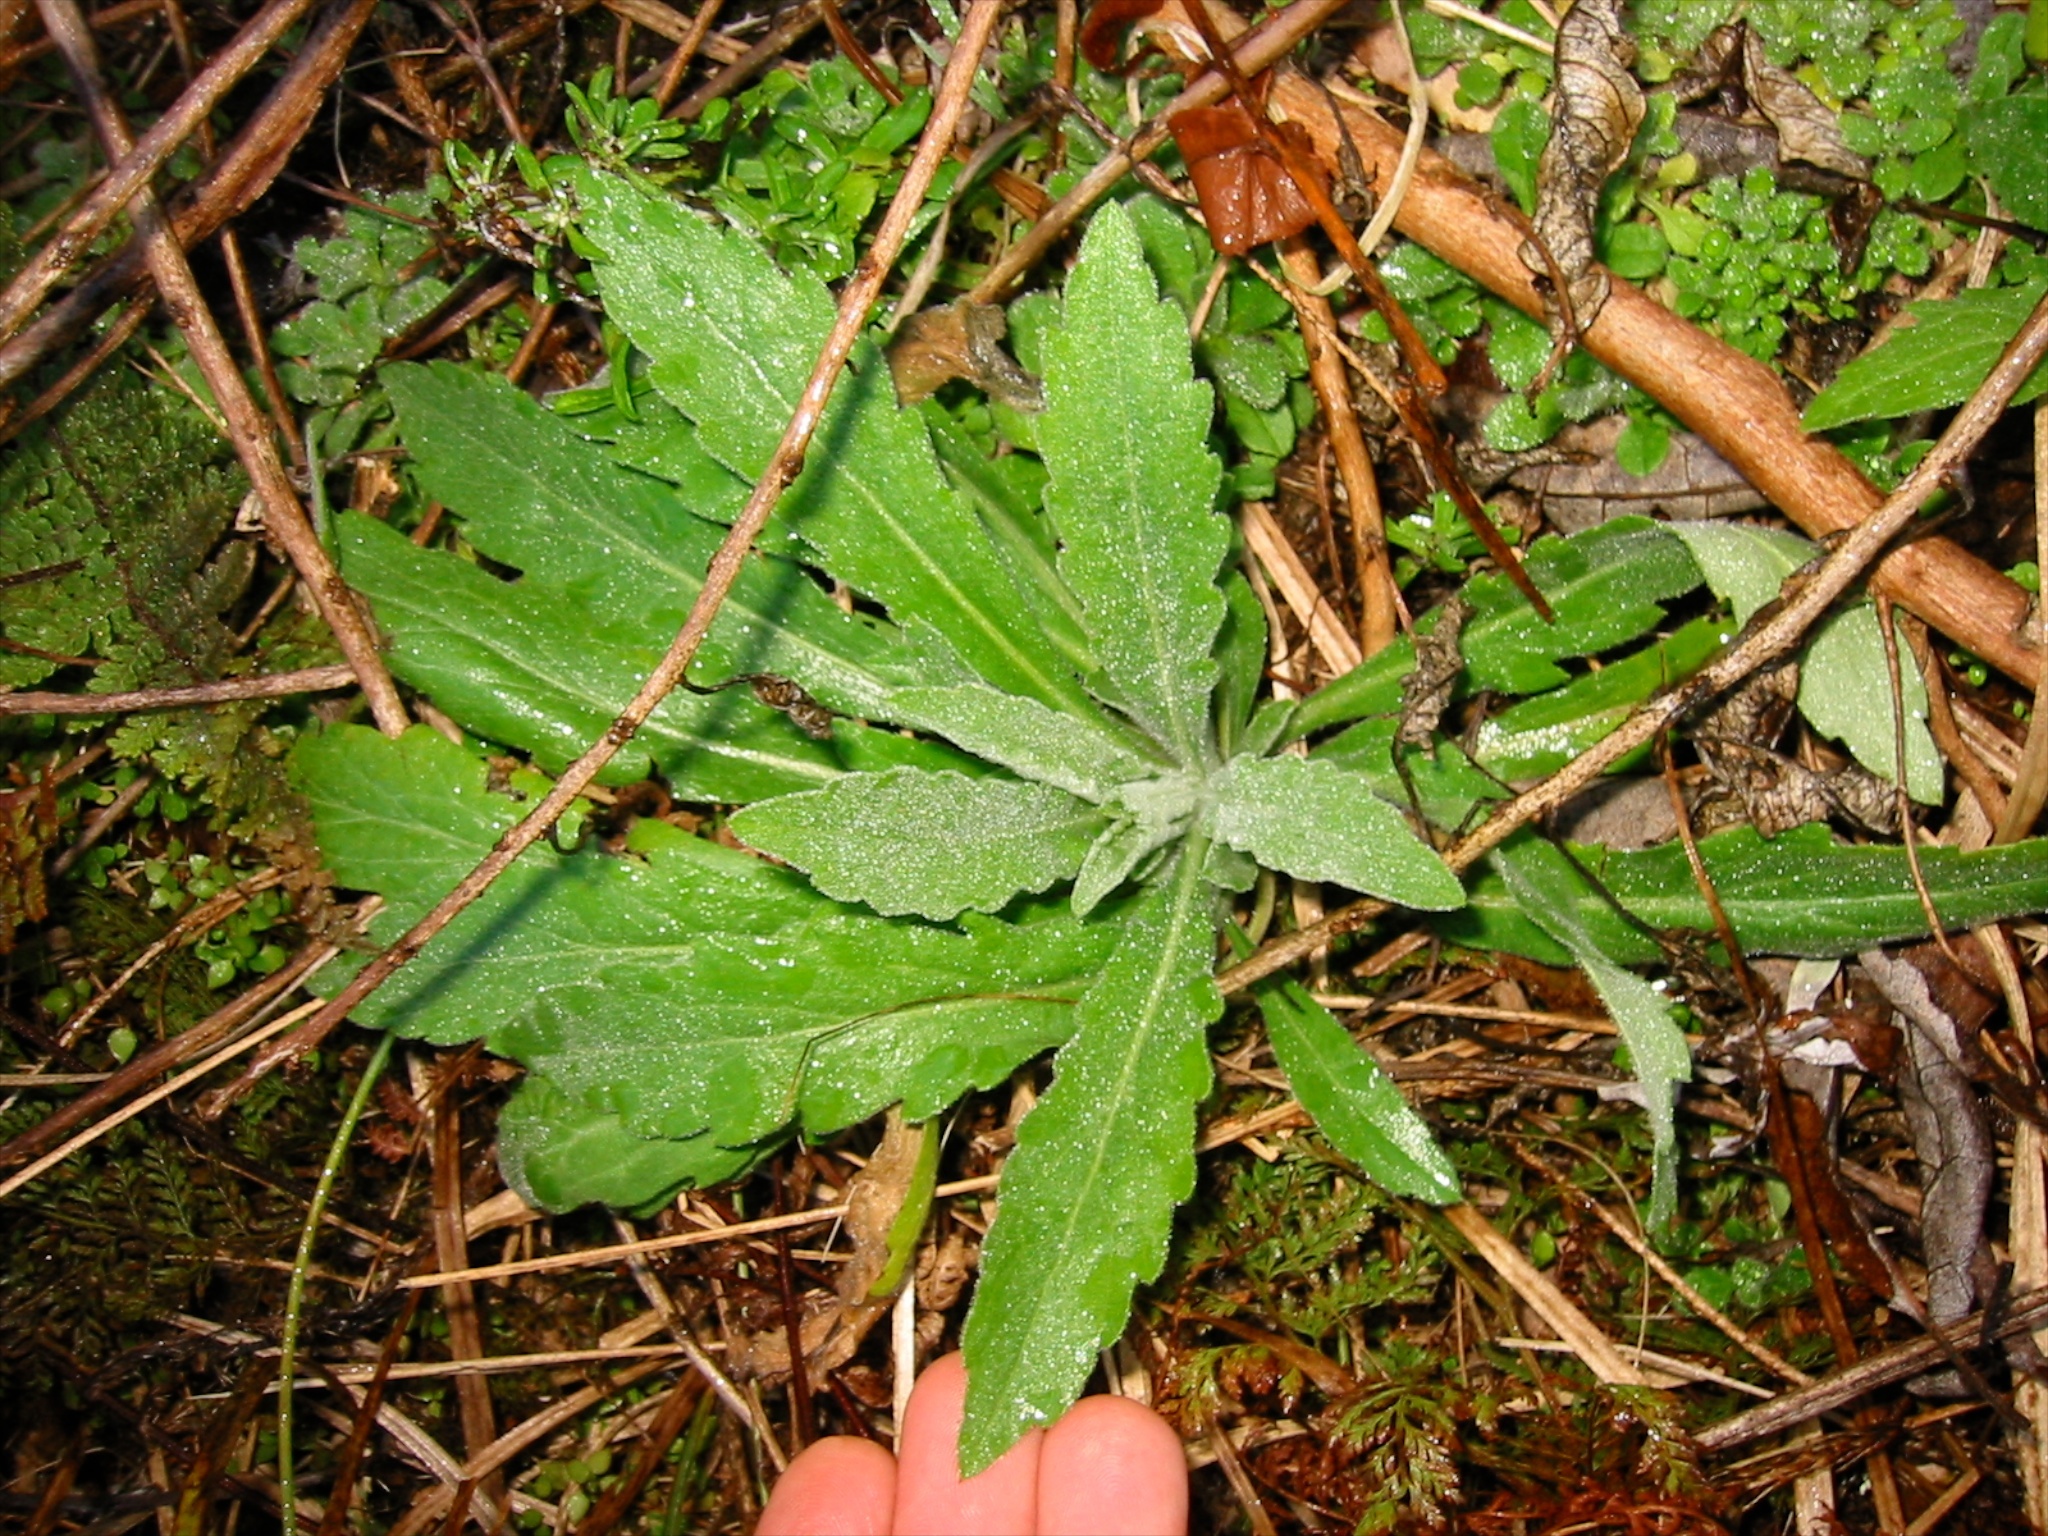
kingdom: Plantae
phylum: Tracheophyta
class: Magnoliopsida
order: Asterales
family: Asteraceae
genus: Erigeron
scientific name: Erigeron sumatrensis
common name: Daisy
